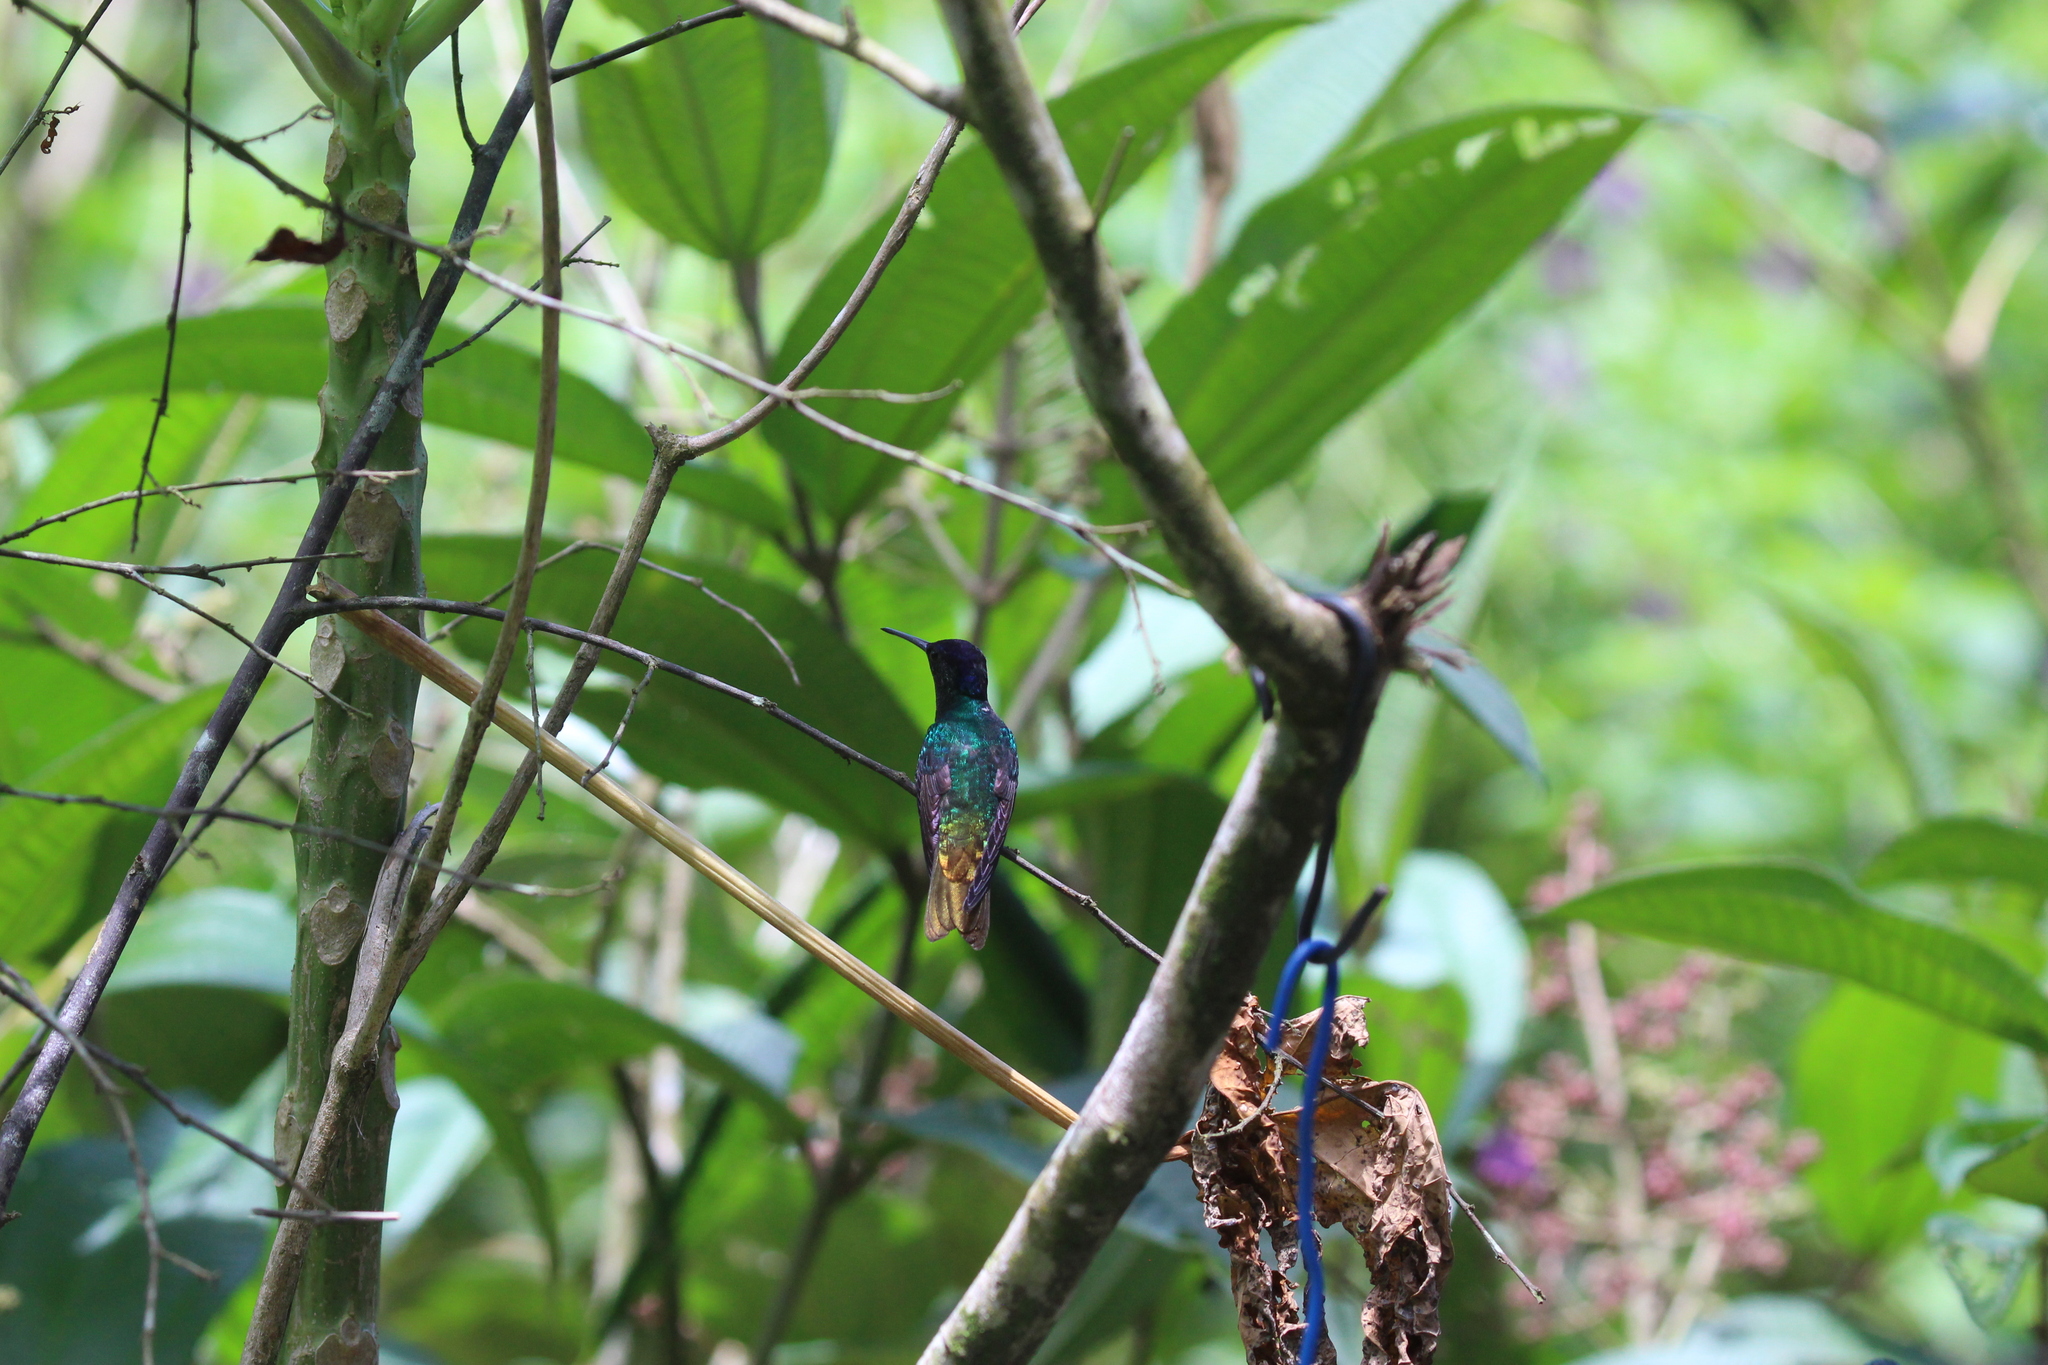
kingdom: Animalia
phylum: Chordata
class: Aves
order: Apodiformes
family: Trochilidae
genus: Chrysuronia
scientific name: Chrysuronia oenone
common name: Golden-tailed sapphire
